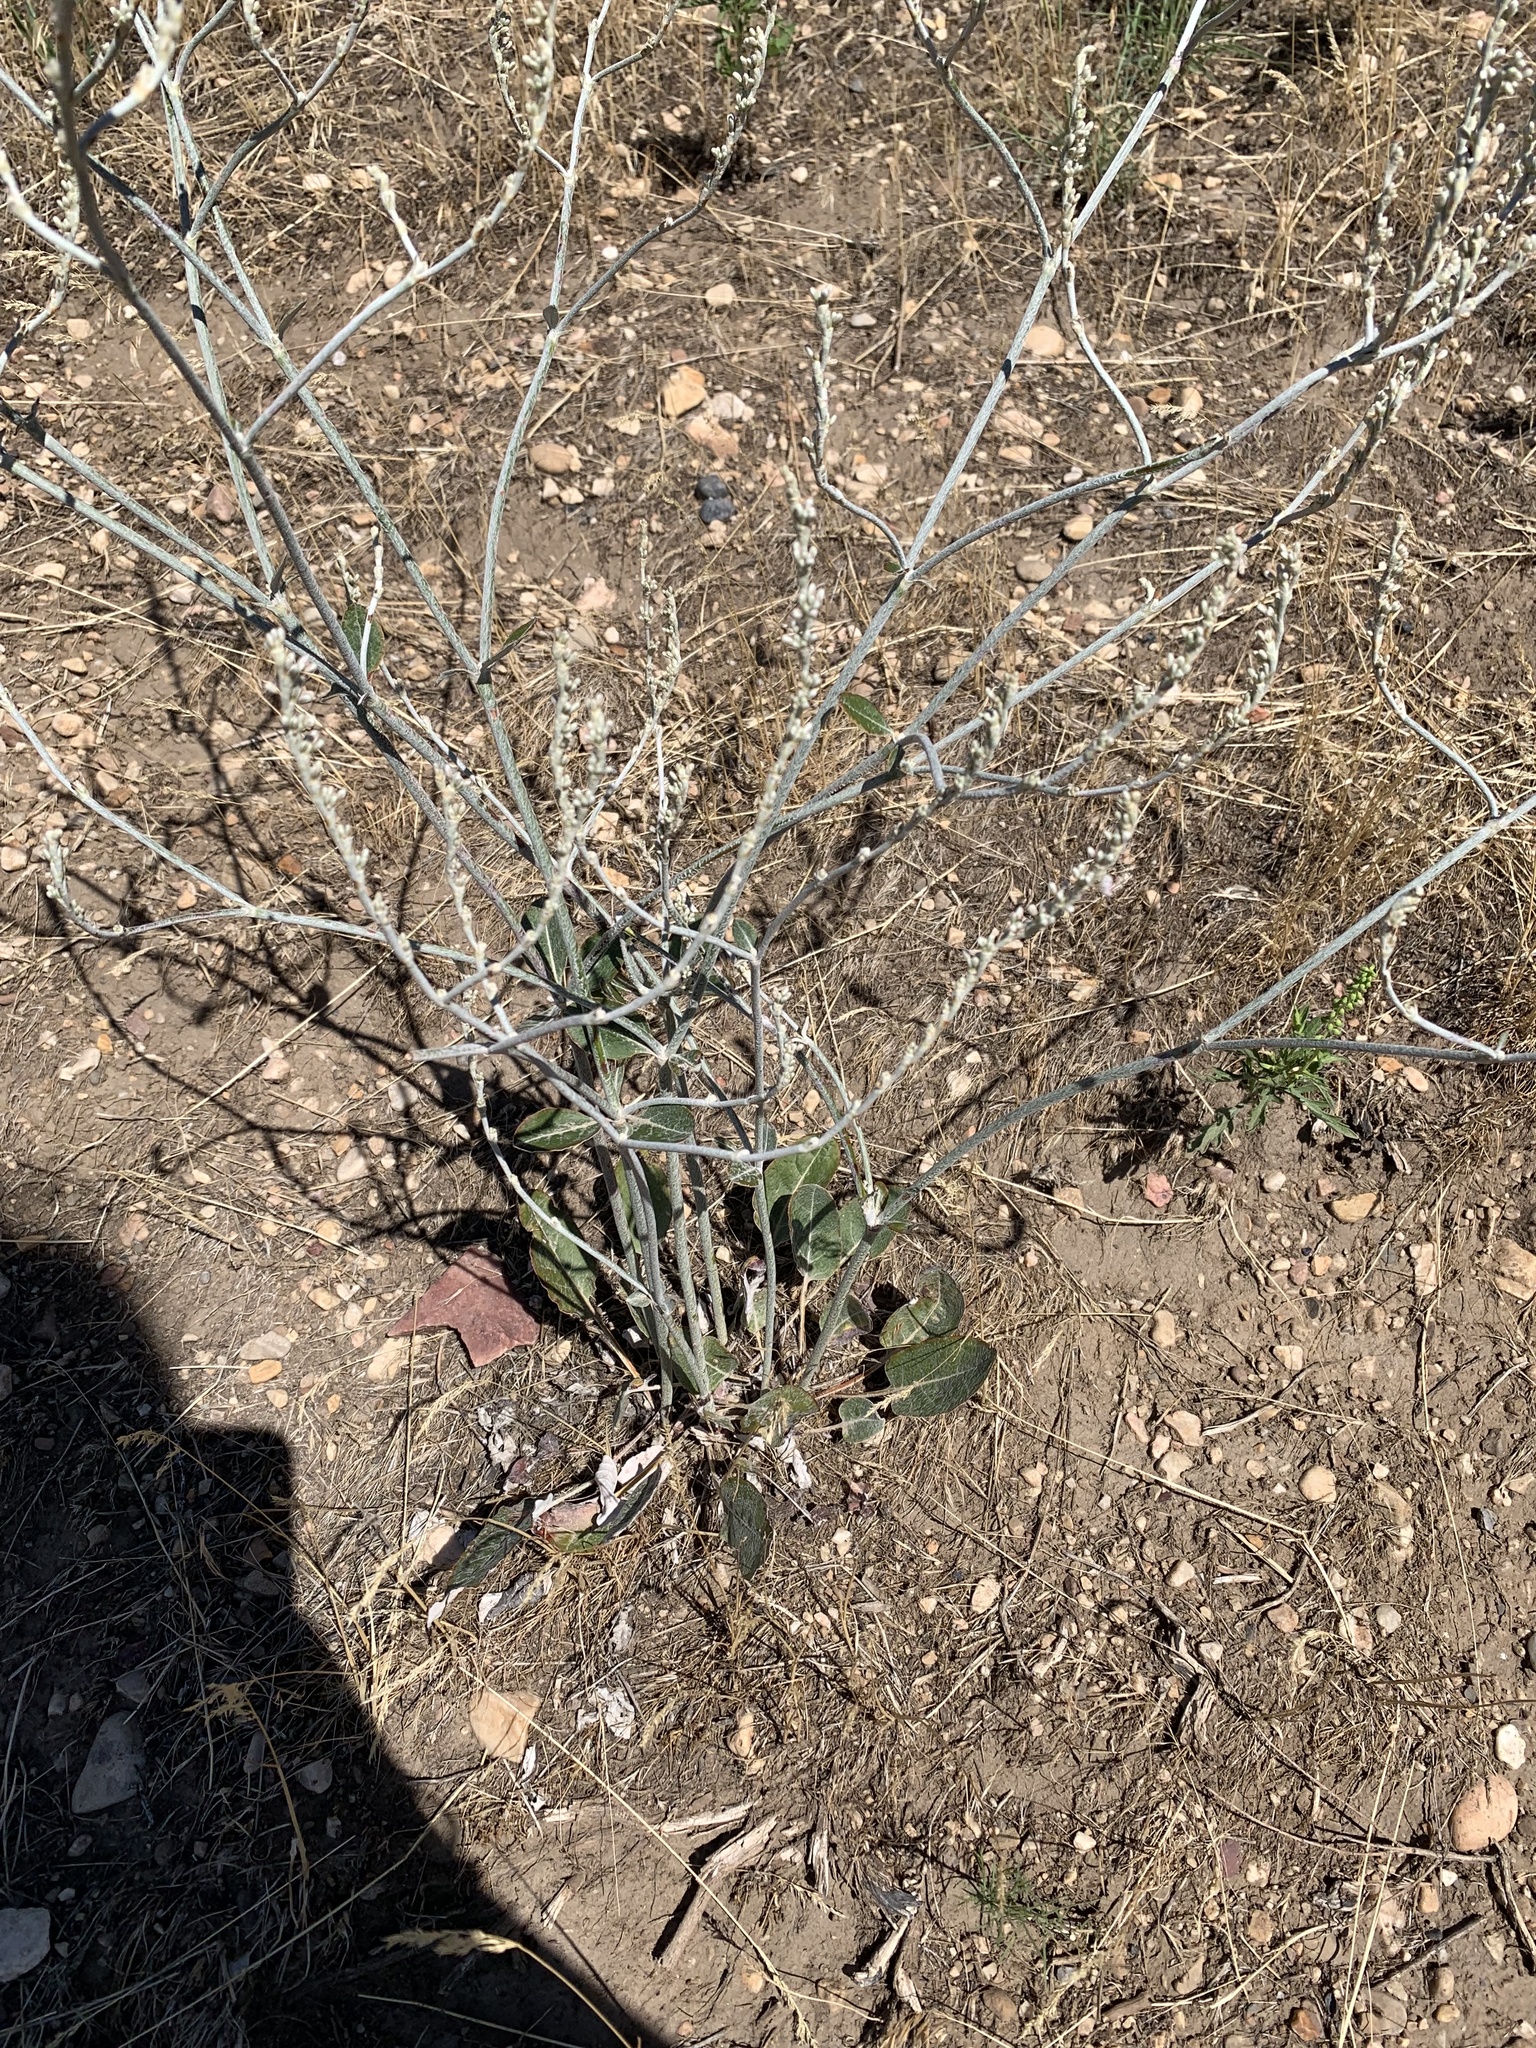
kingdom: Plantae
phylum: Tracheophyta
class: Magnoliopsida
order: Caryophyllales
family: Polygonaceae
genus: Eriogonum
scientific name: Eriogonum racemosum
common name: Redroot wild buckwheat
